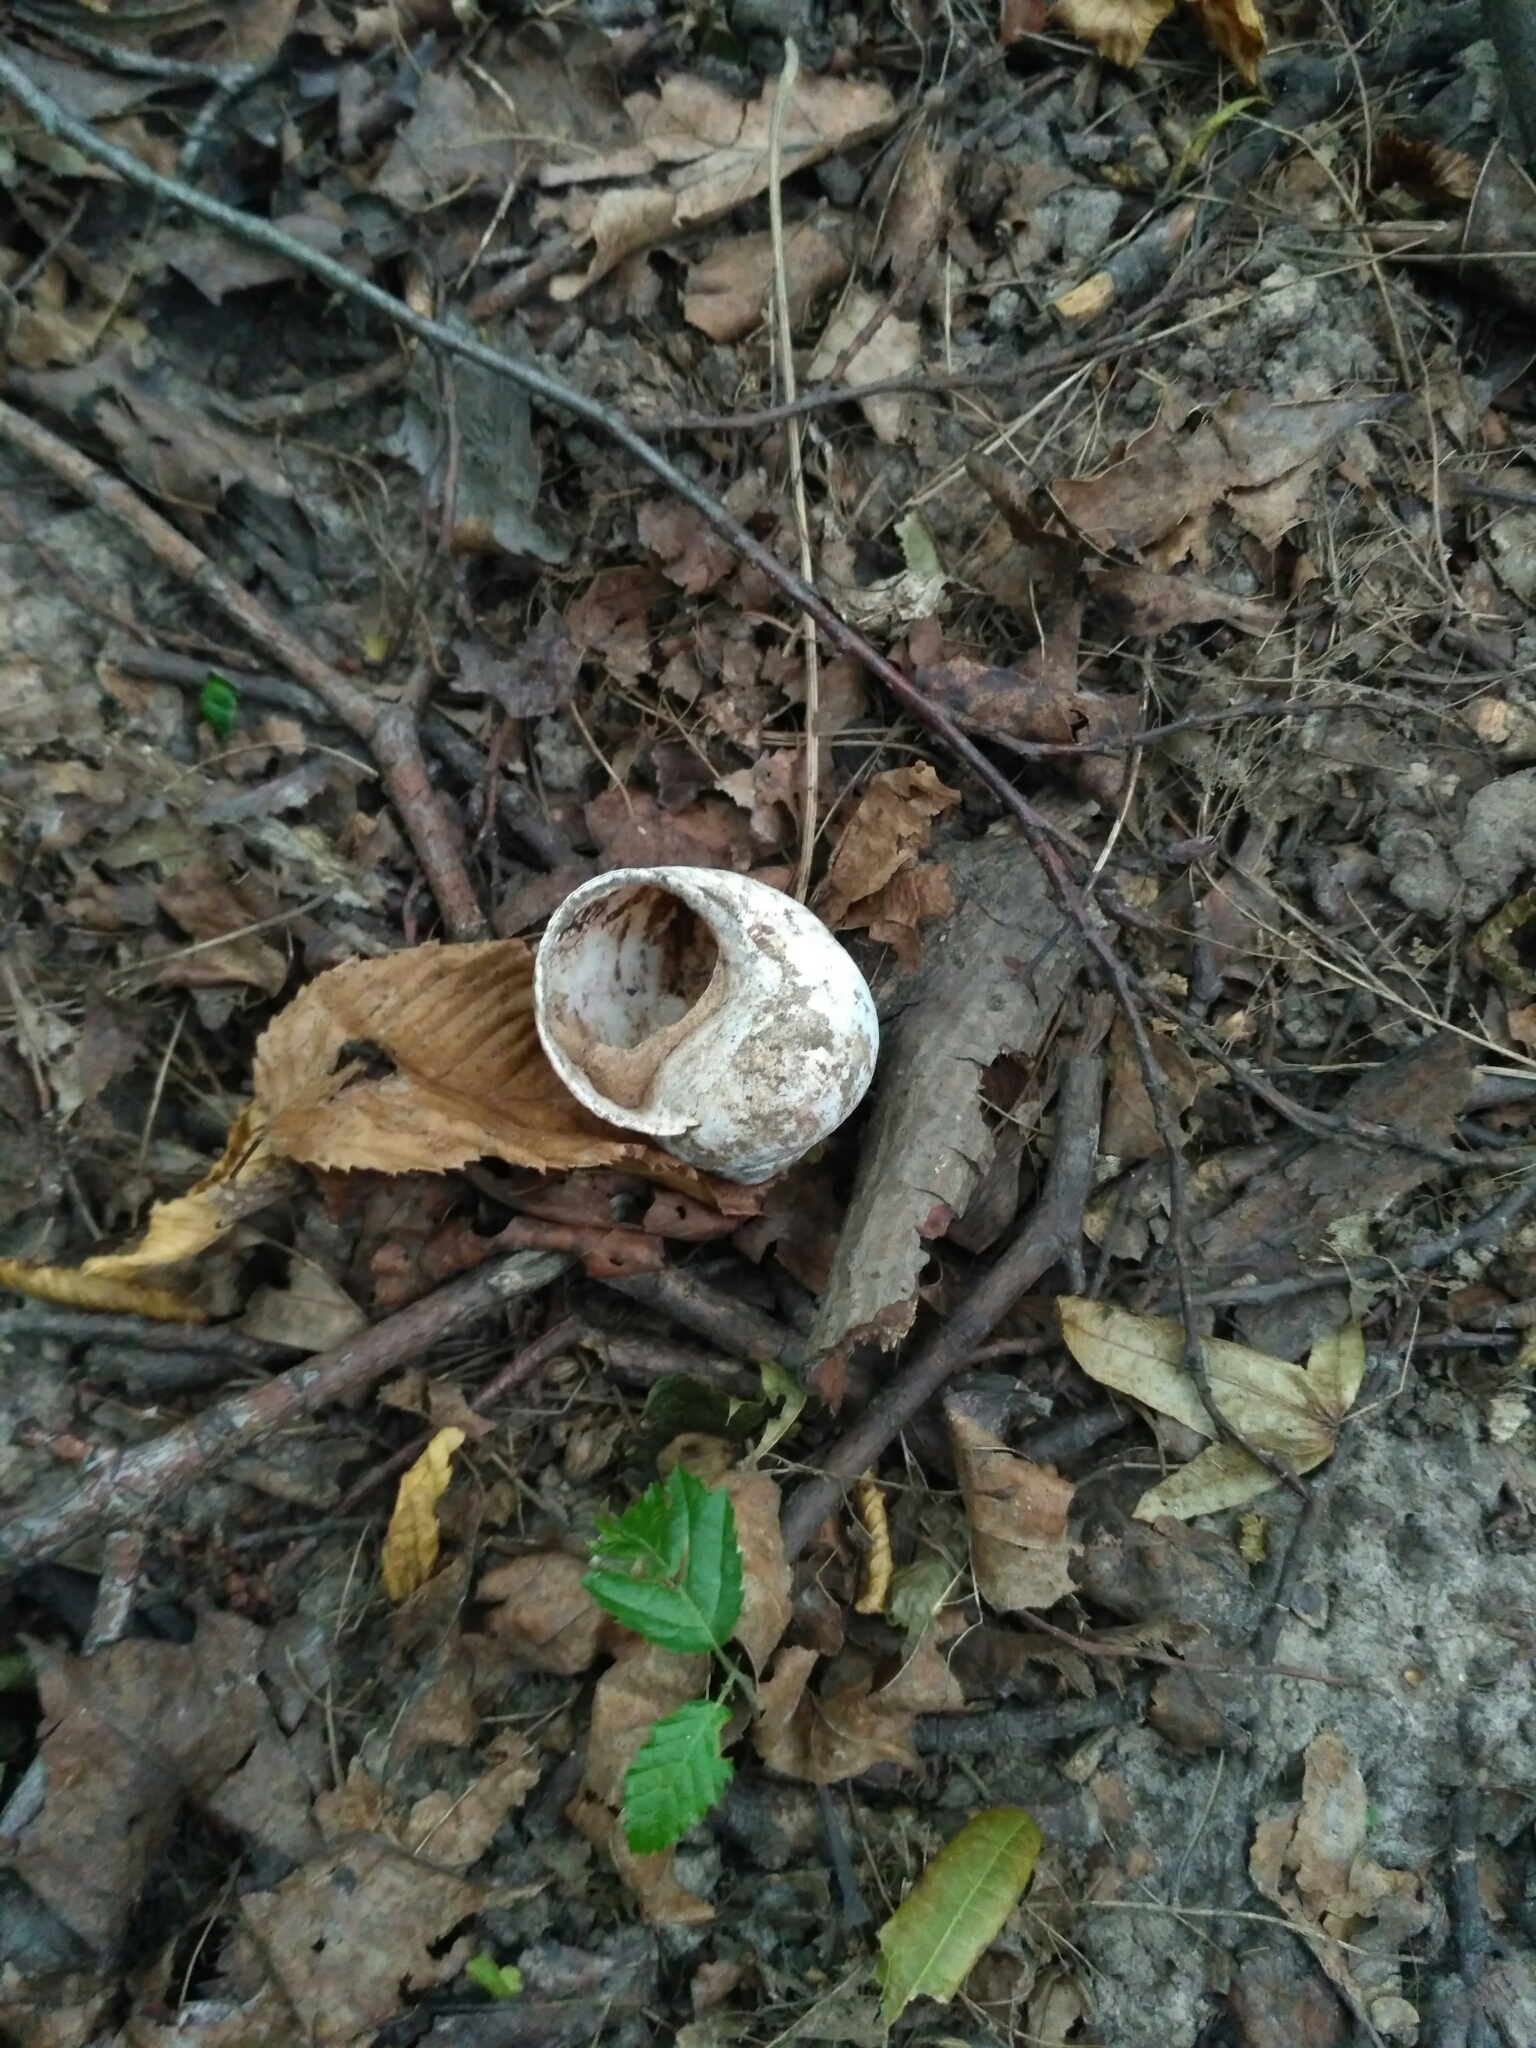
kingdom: Animalia
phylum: Mollusca
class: Gastropoda
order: Stylommatophora
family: Helicidae
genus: Helix
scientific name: Helix pomatia
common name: Roman snail
